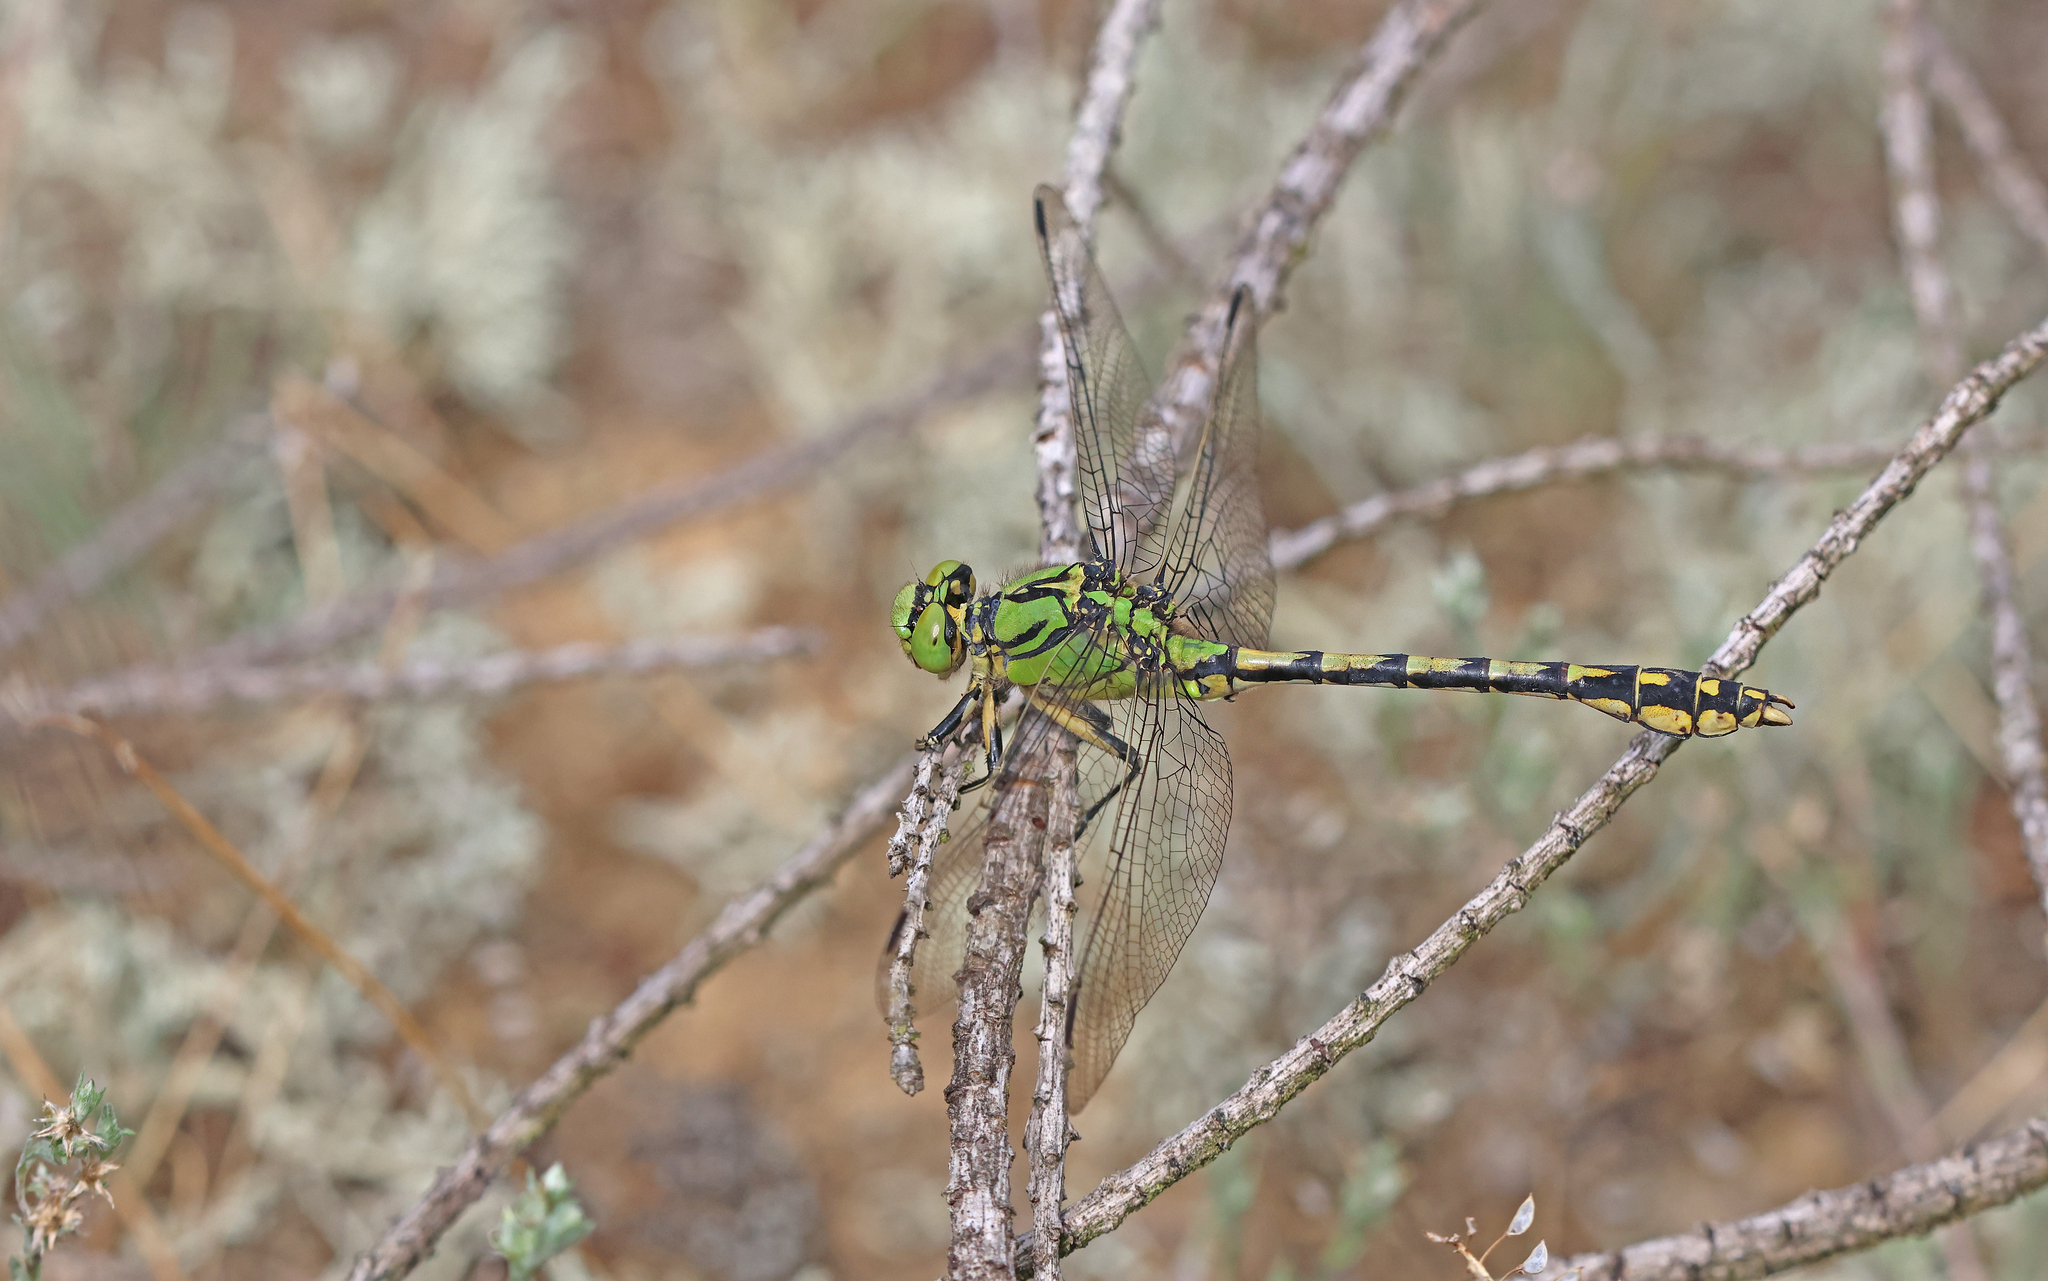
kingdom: Animalia
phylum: Arthropoda
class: Insecta
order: Odonata
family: Gomphidae
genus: Ophiogomphus
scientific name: Ophiogomphus cecilia
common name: Green snaketail
